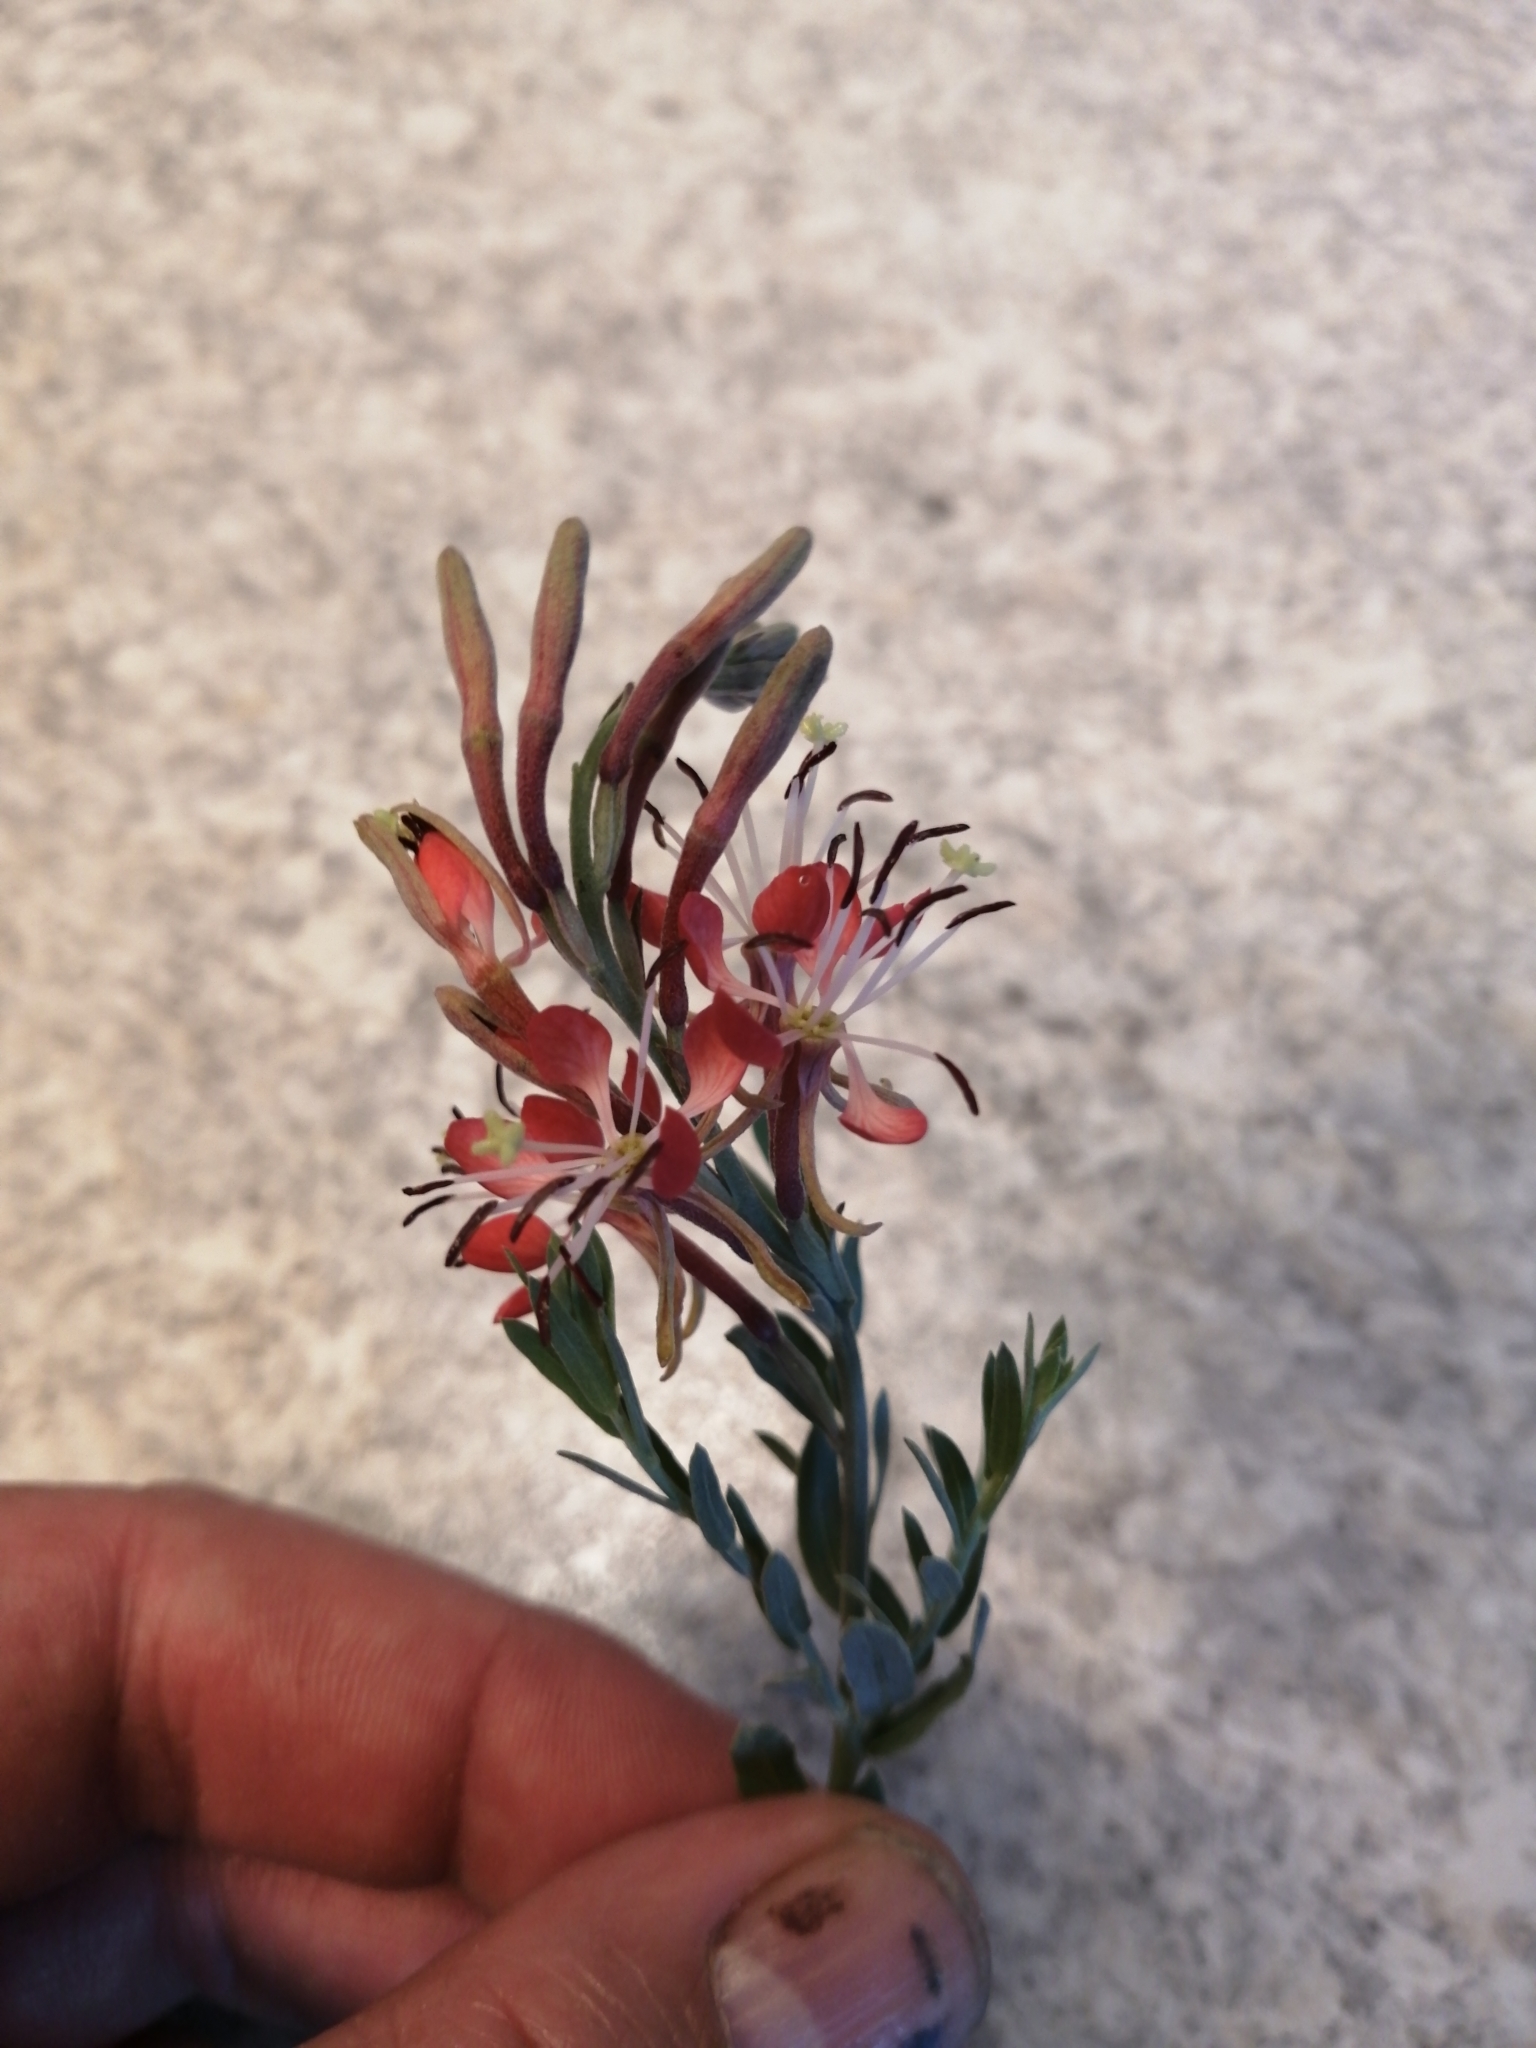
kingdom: Plantae
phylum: Tracheophyta
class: Magnoliopsida
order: Myrtales
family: Onagraceae
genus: Oenothera
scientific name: Oenothera suffrutescens
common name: Scarlet beeblossom
